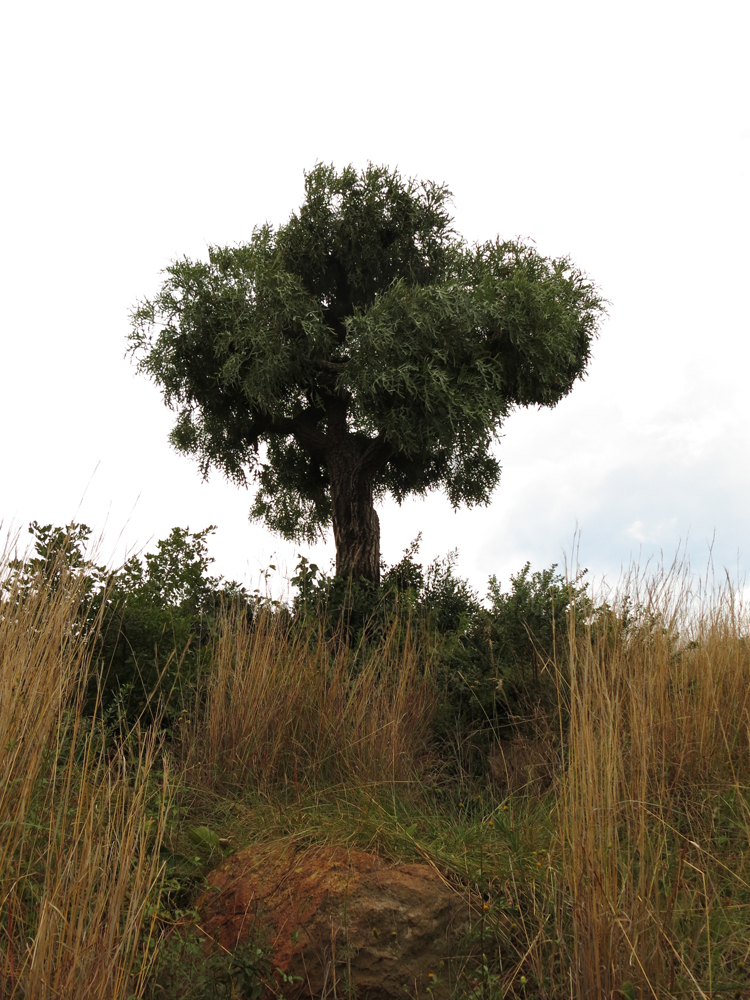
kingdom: Plantae
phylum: Tracheophyta
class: Magnoliopsida
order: Apiales
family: Araliaceae
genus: Cussonia
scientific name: Cussonia paniculata
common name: Cabbagetree
